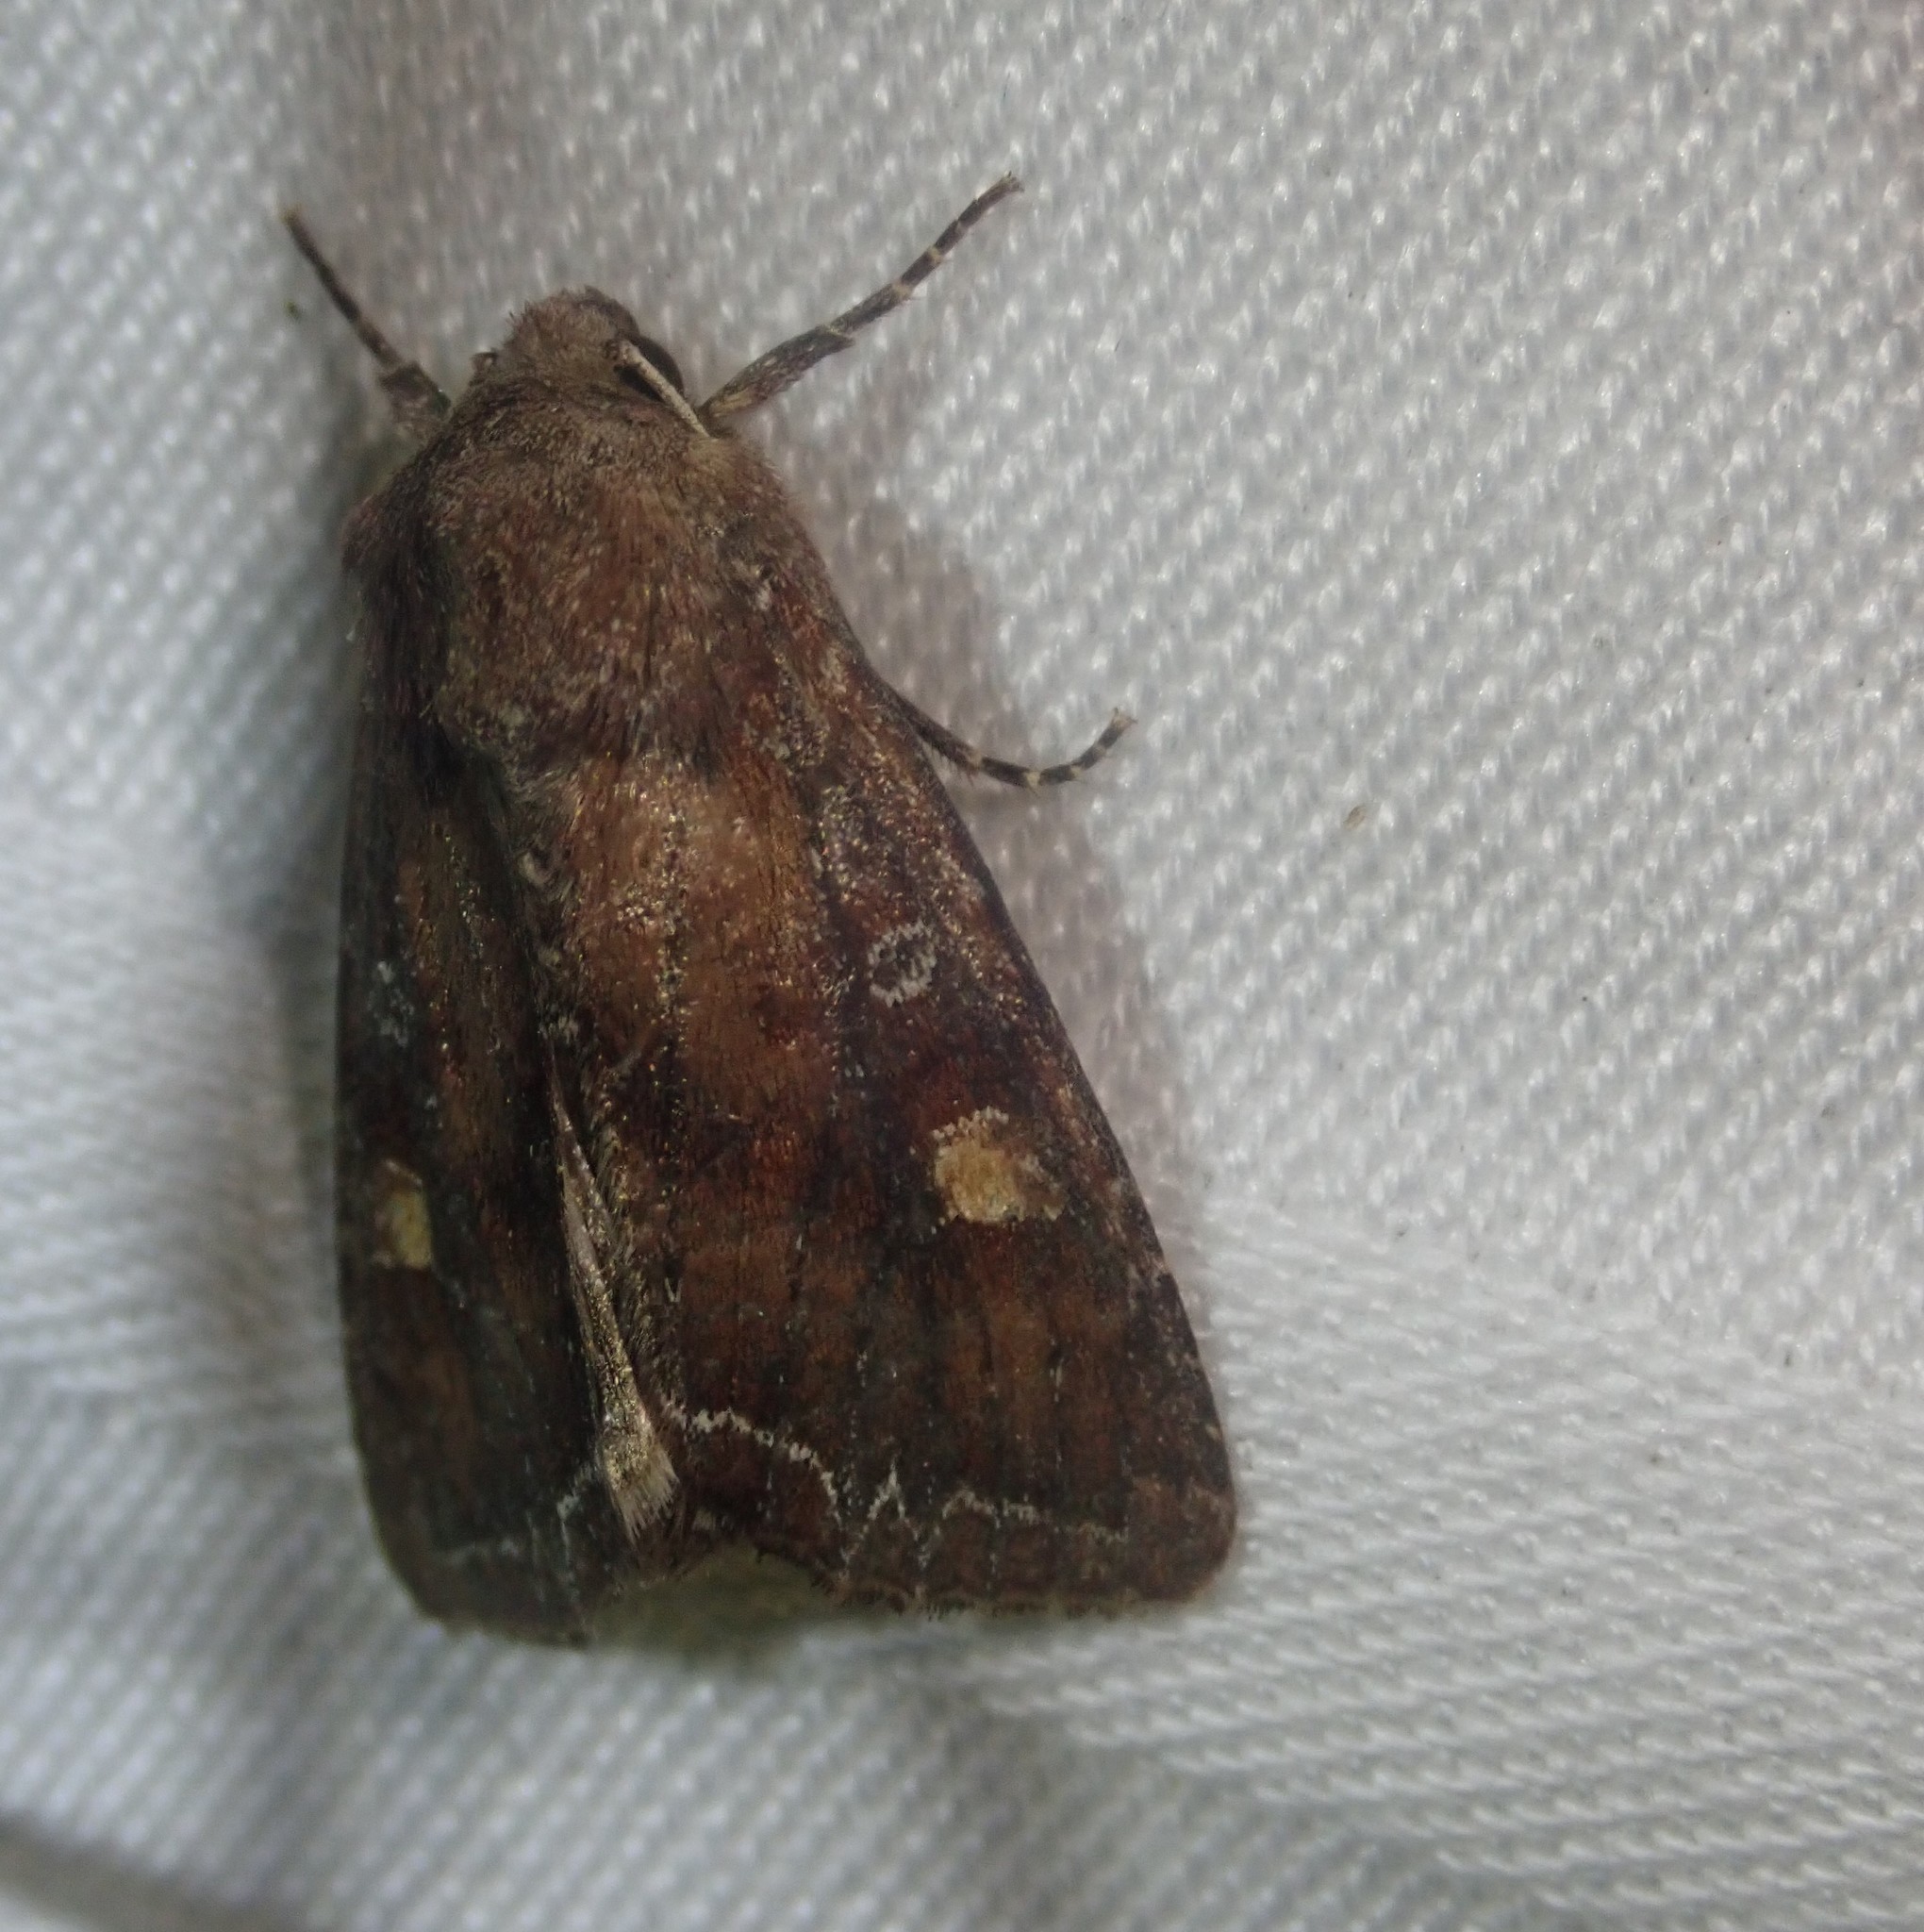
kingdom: Animalia
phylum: Arthropoda
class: Insecta
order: Lepidoptera
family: Noctuidae
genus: Lacanobia
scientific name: Lacanobia oleracea
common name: Bright-line brown-eye
